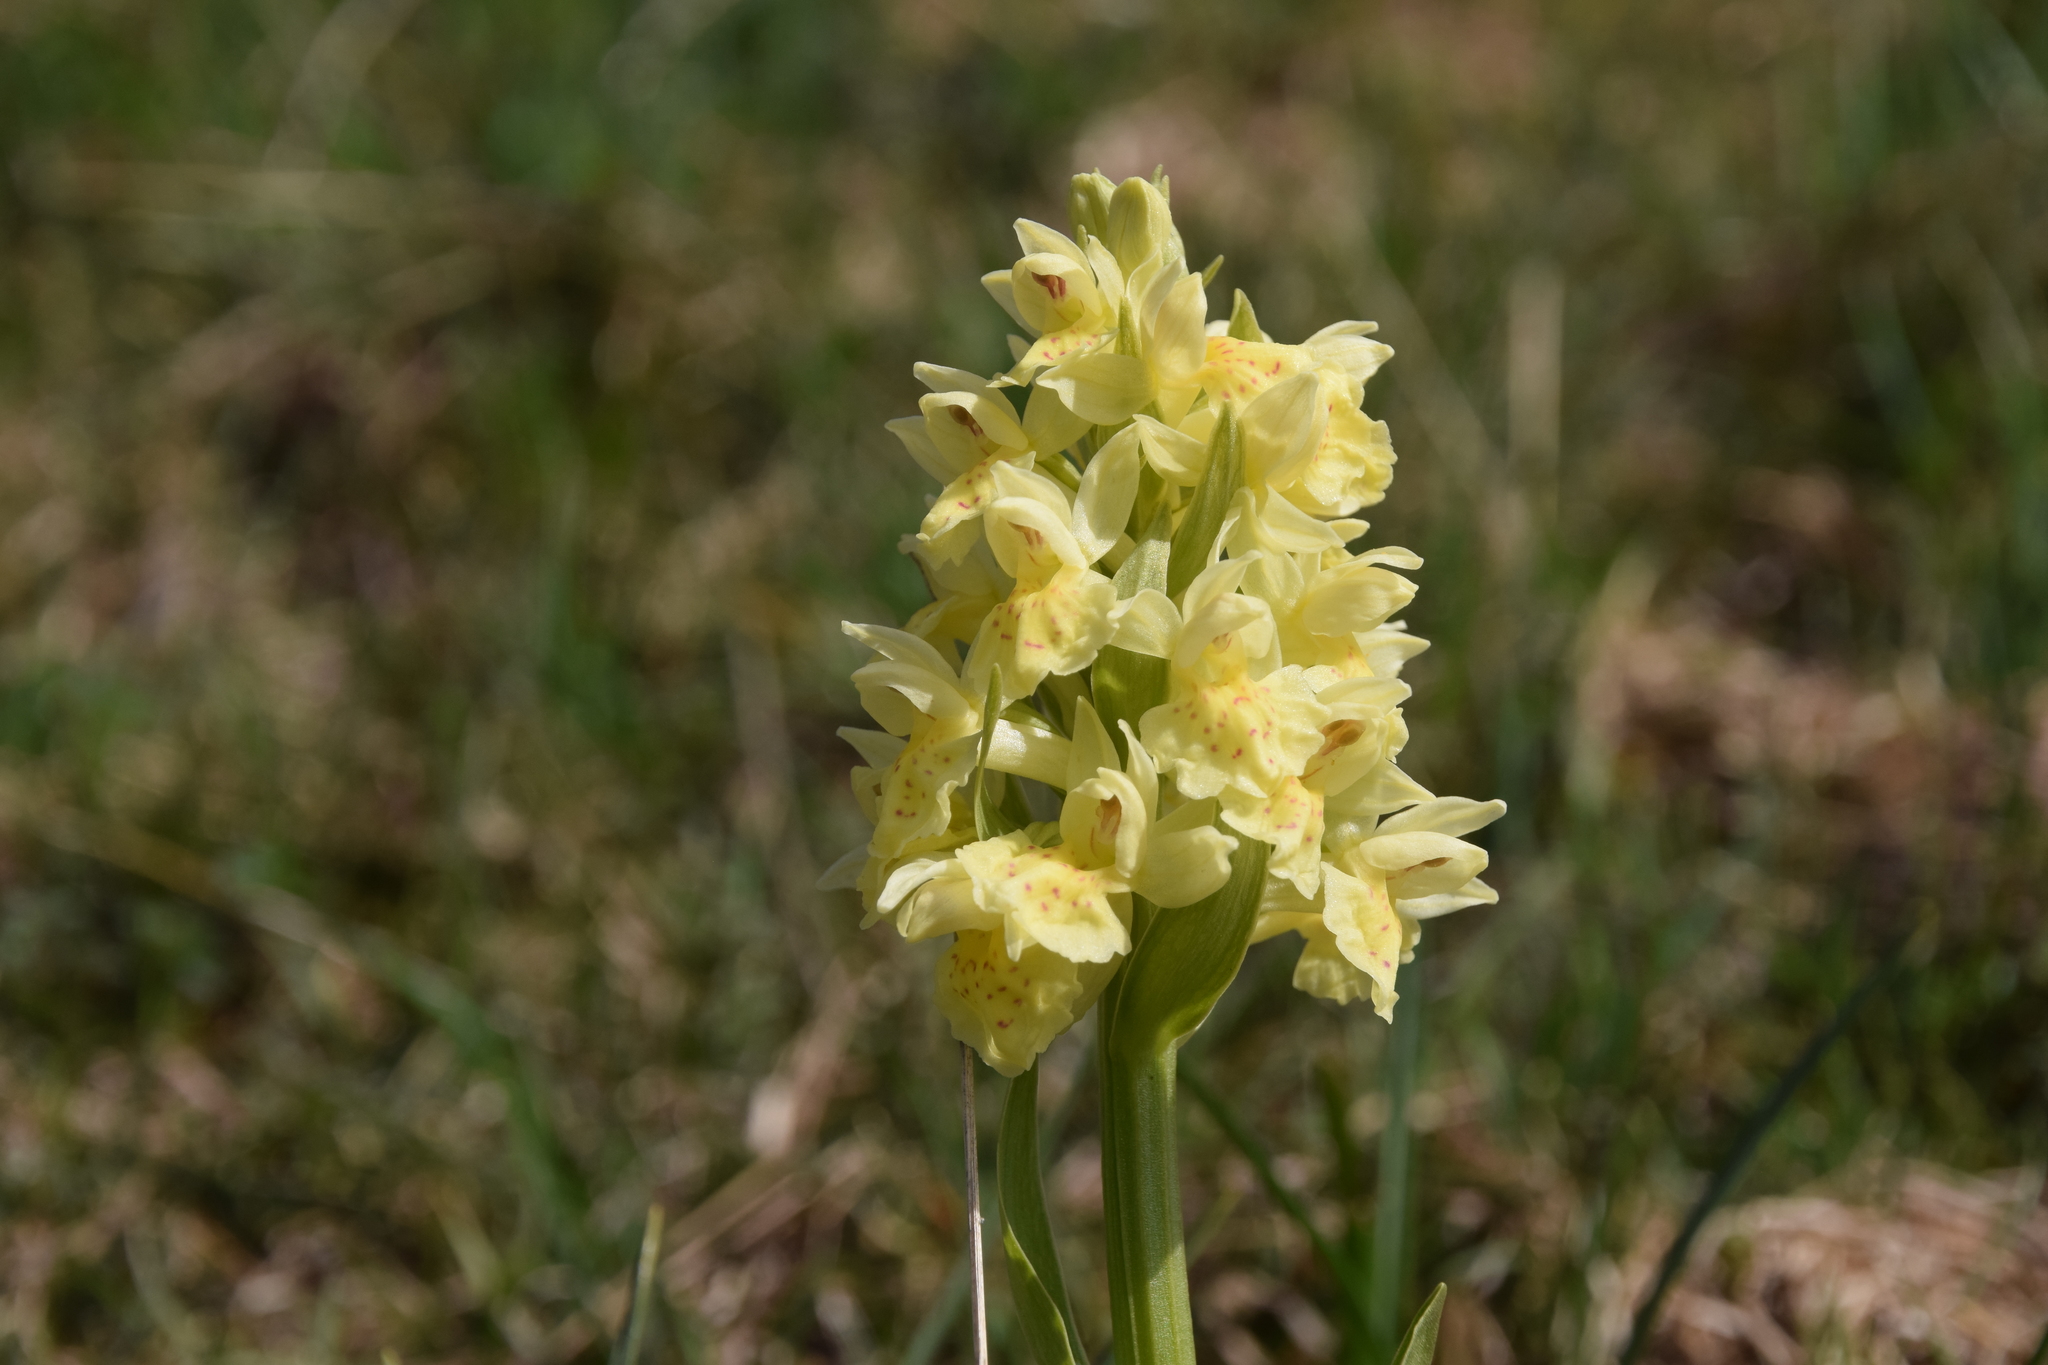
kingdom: Plantae
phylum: Tracheophyta
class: Liliopsida
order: Asparagales
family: Orchidaceae
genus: Dactylorhiza
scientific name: Dactylorhiza sambucina
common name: Elder-flowered orchid
